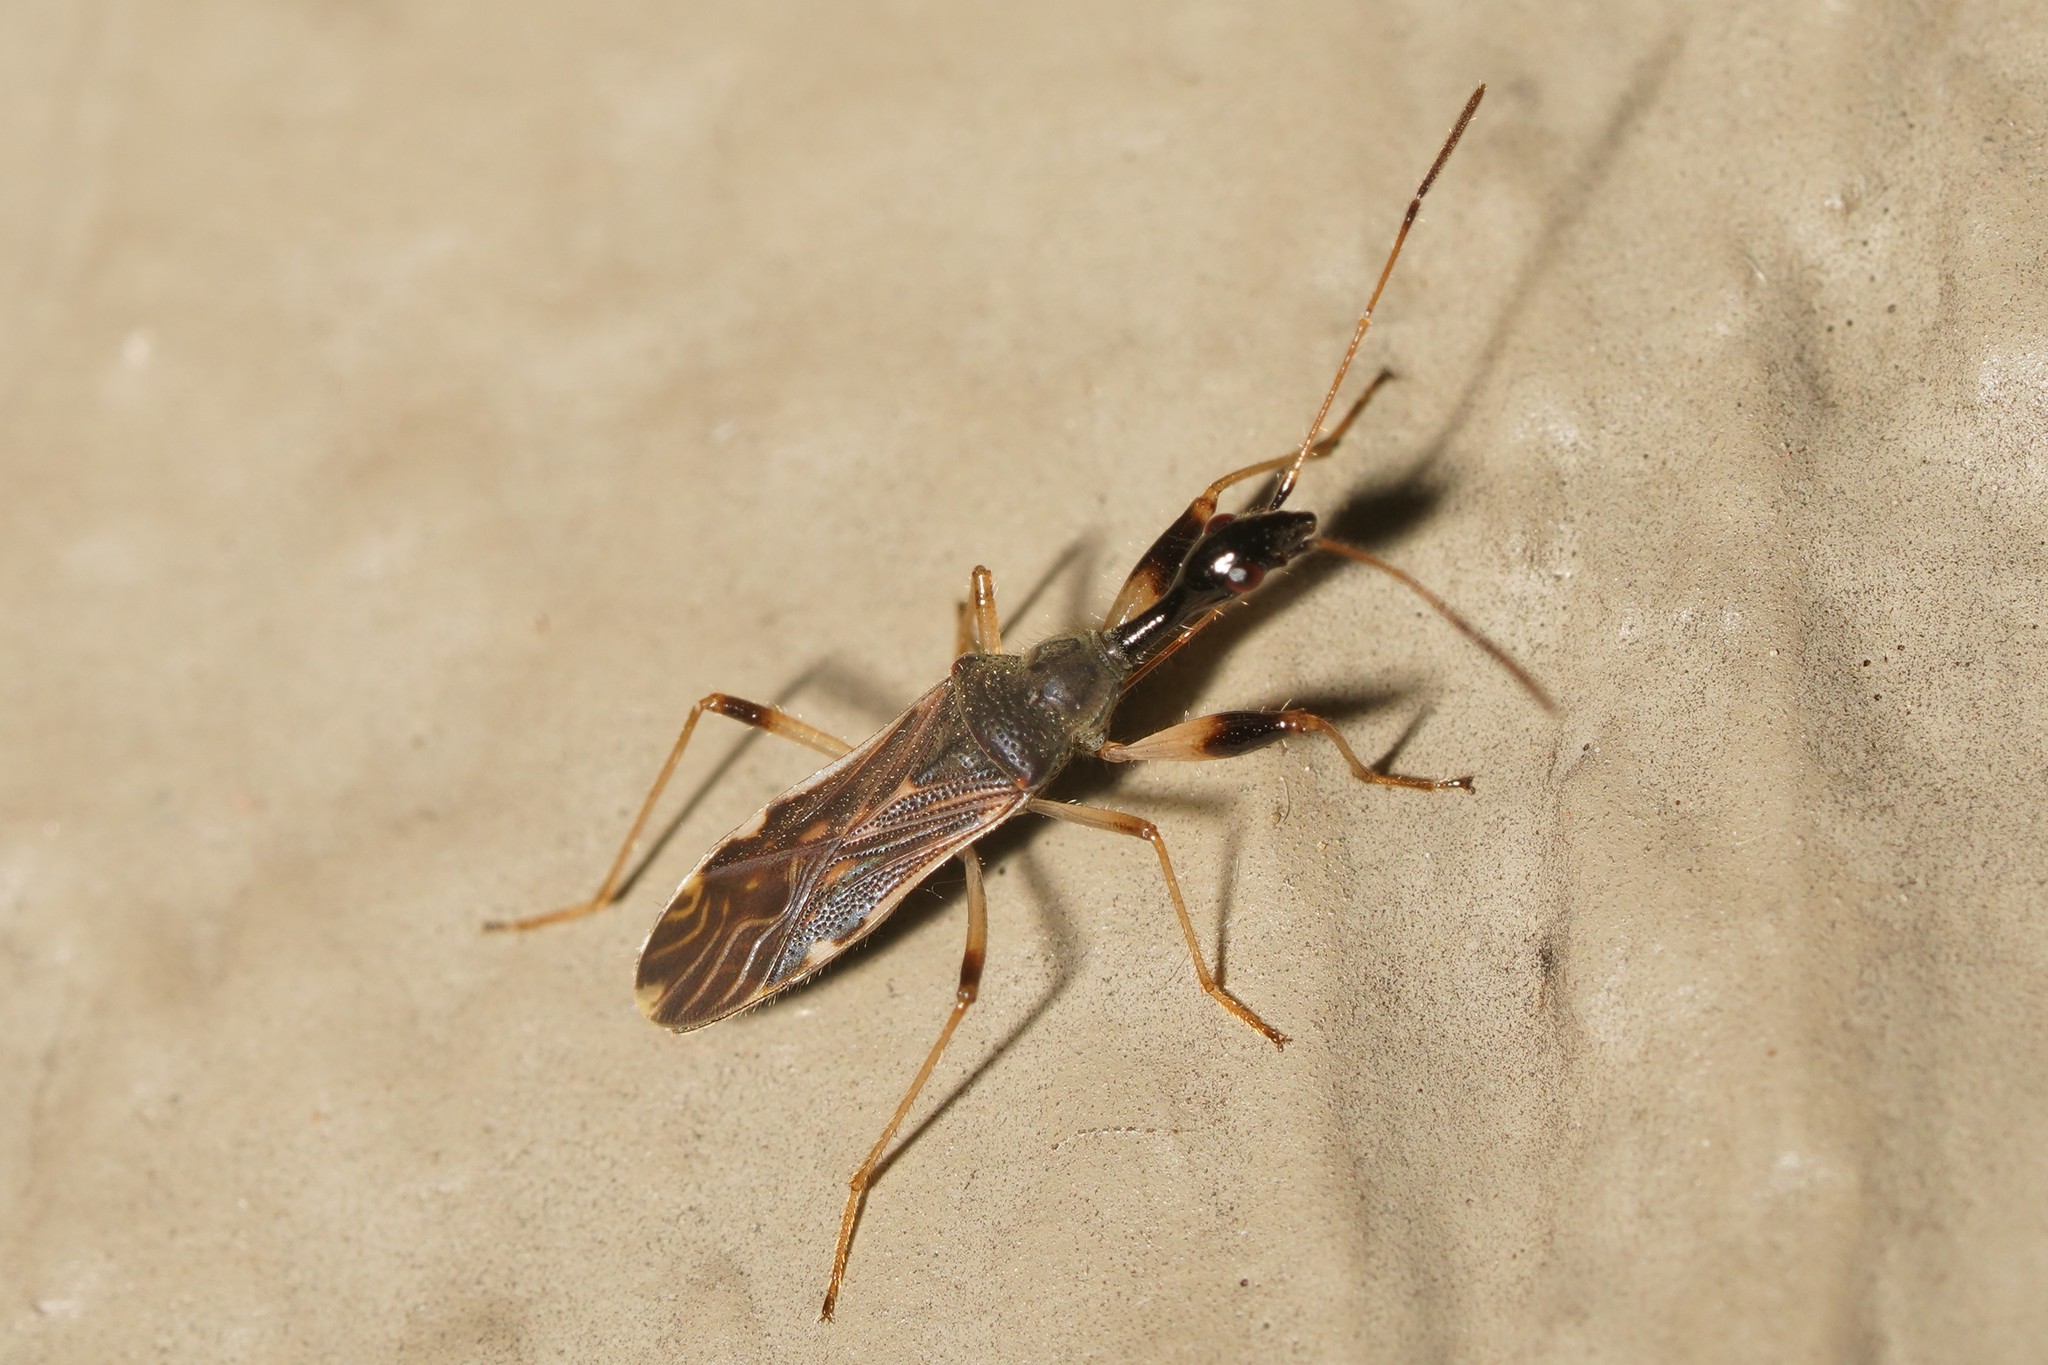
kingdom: Animalia
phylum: Arthropoda
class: Insecta
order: Hemiptera
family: Rhyparochromidae
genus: Myodocha
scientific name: Myodocha serripes
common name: Long-necked seed bug
